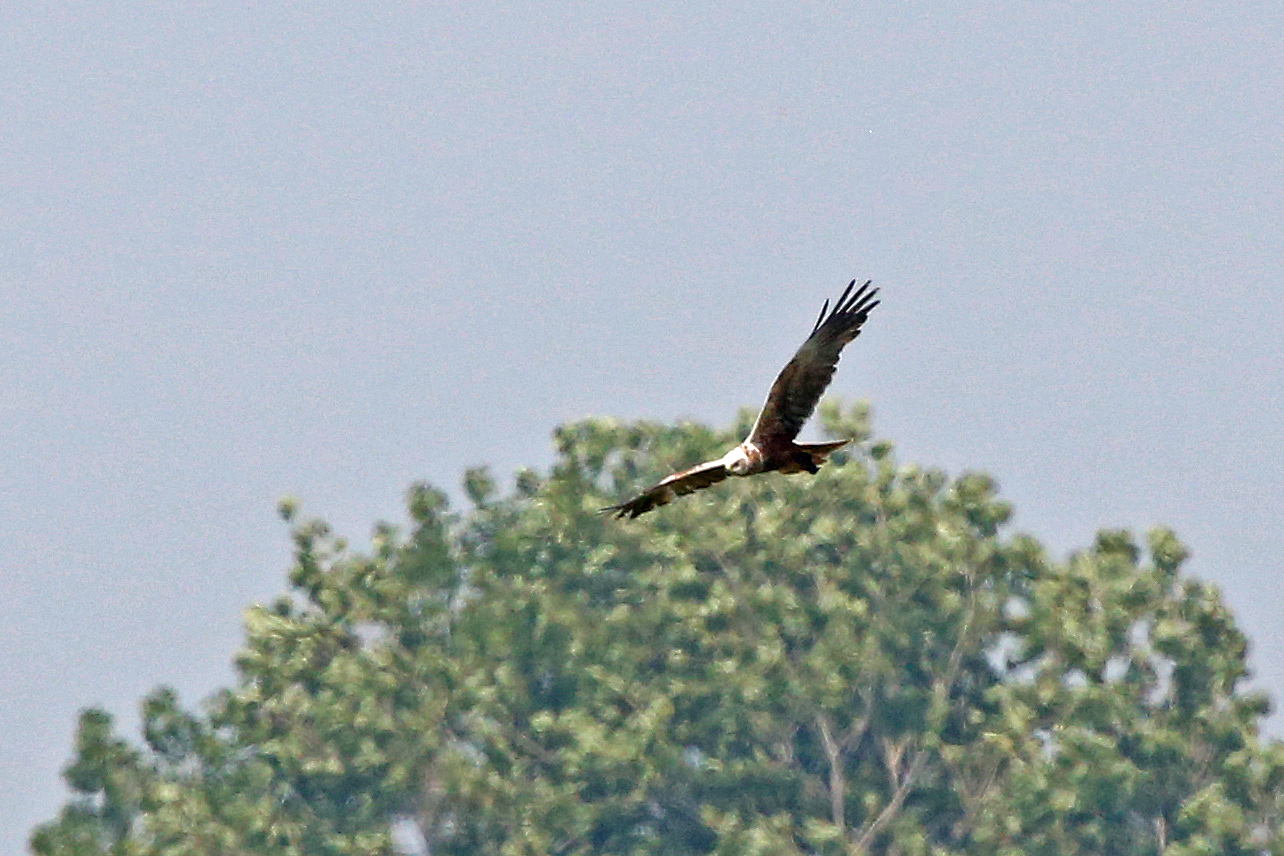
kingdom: Animalia
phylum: Chordata
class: Aves
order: Accipitriformes
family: Accipitridae
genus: Circus
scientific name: Circus aeruginosus
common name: Western marsh harrier
